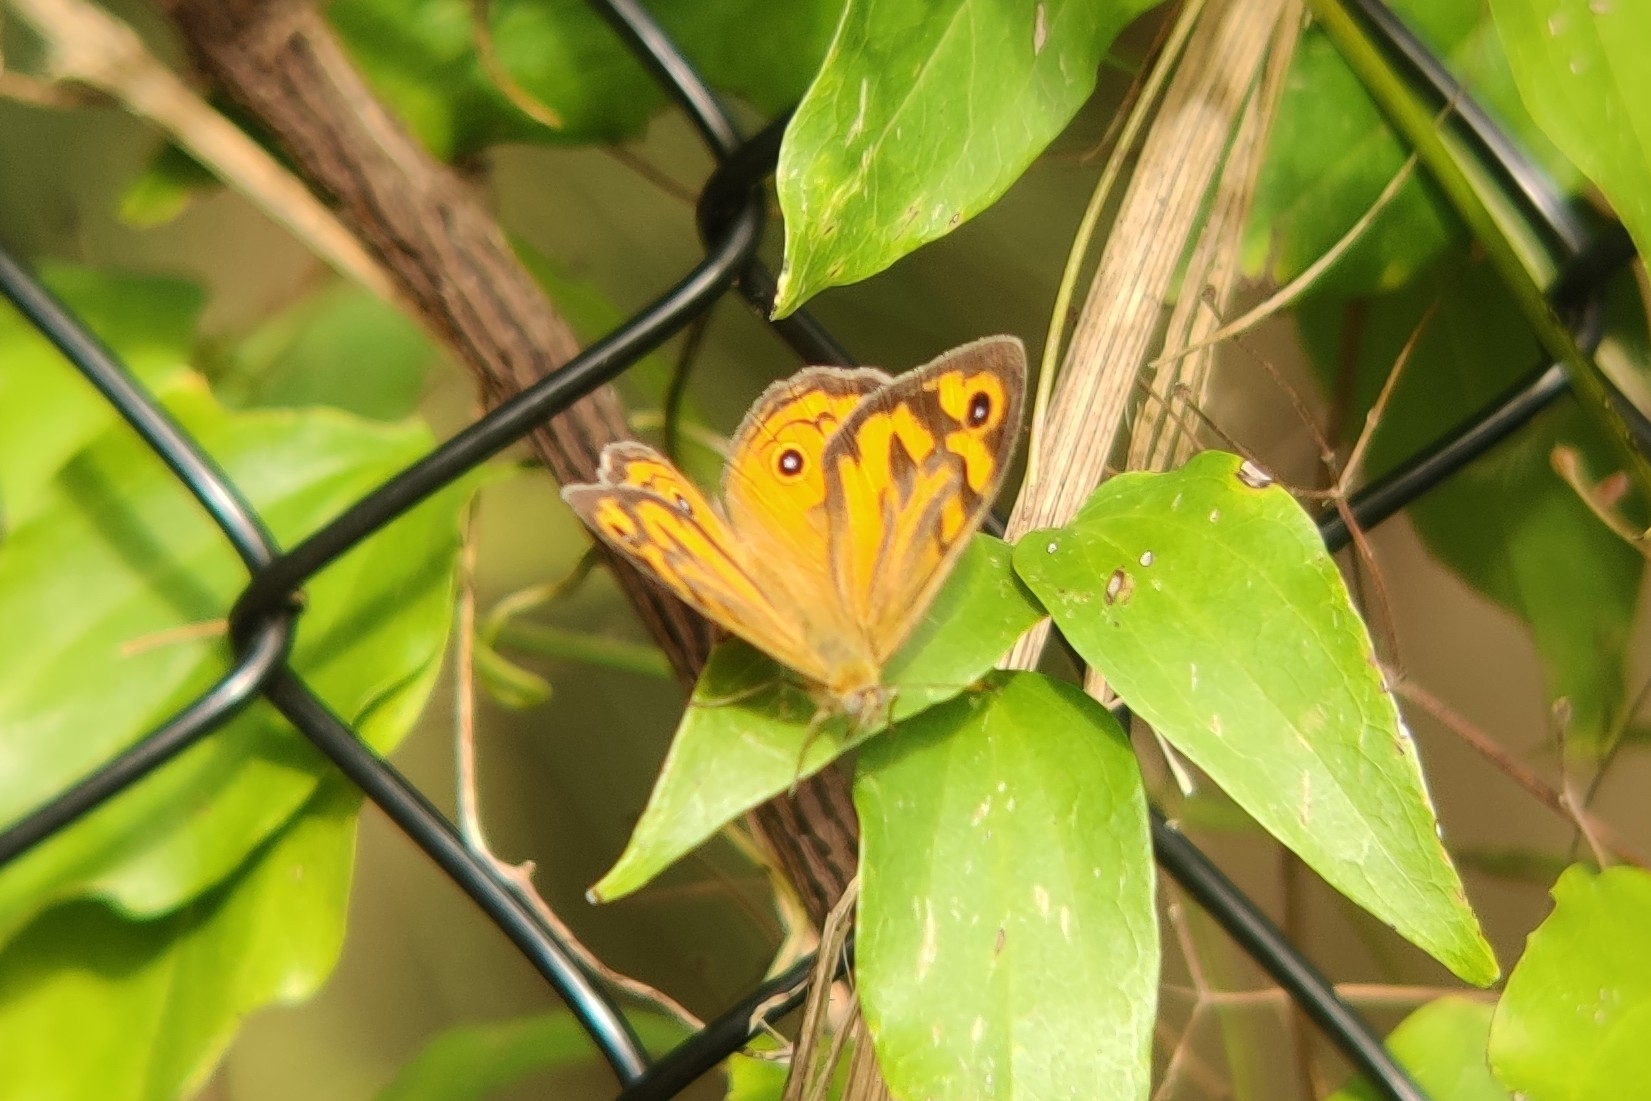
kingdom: Animalia
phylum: Arthropoda
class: Insecta
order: Lepidoptera
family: Nymphalidae
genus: Heteronympha
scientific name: Heteronympha merope
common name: Common brown
